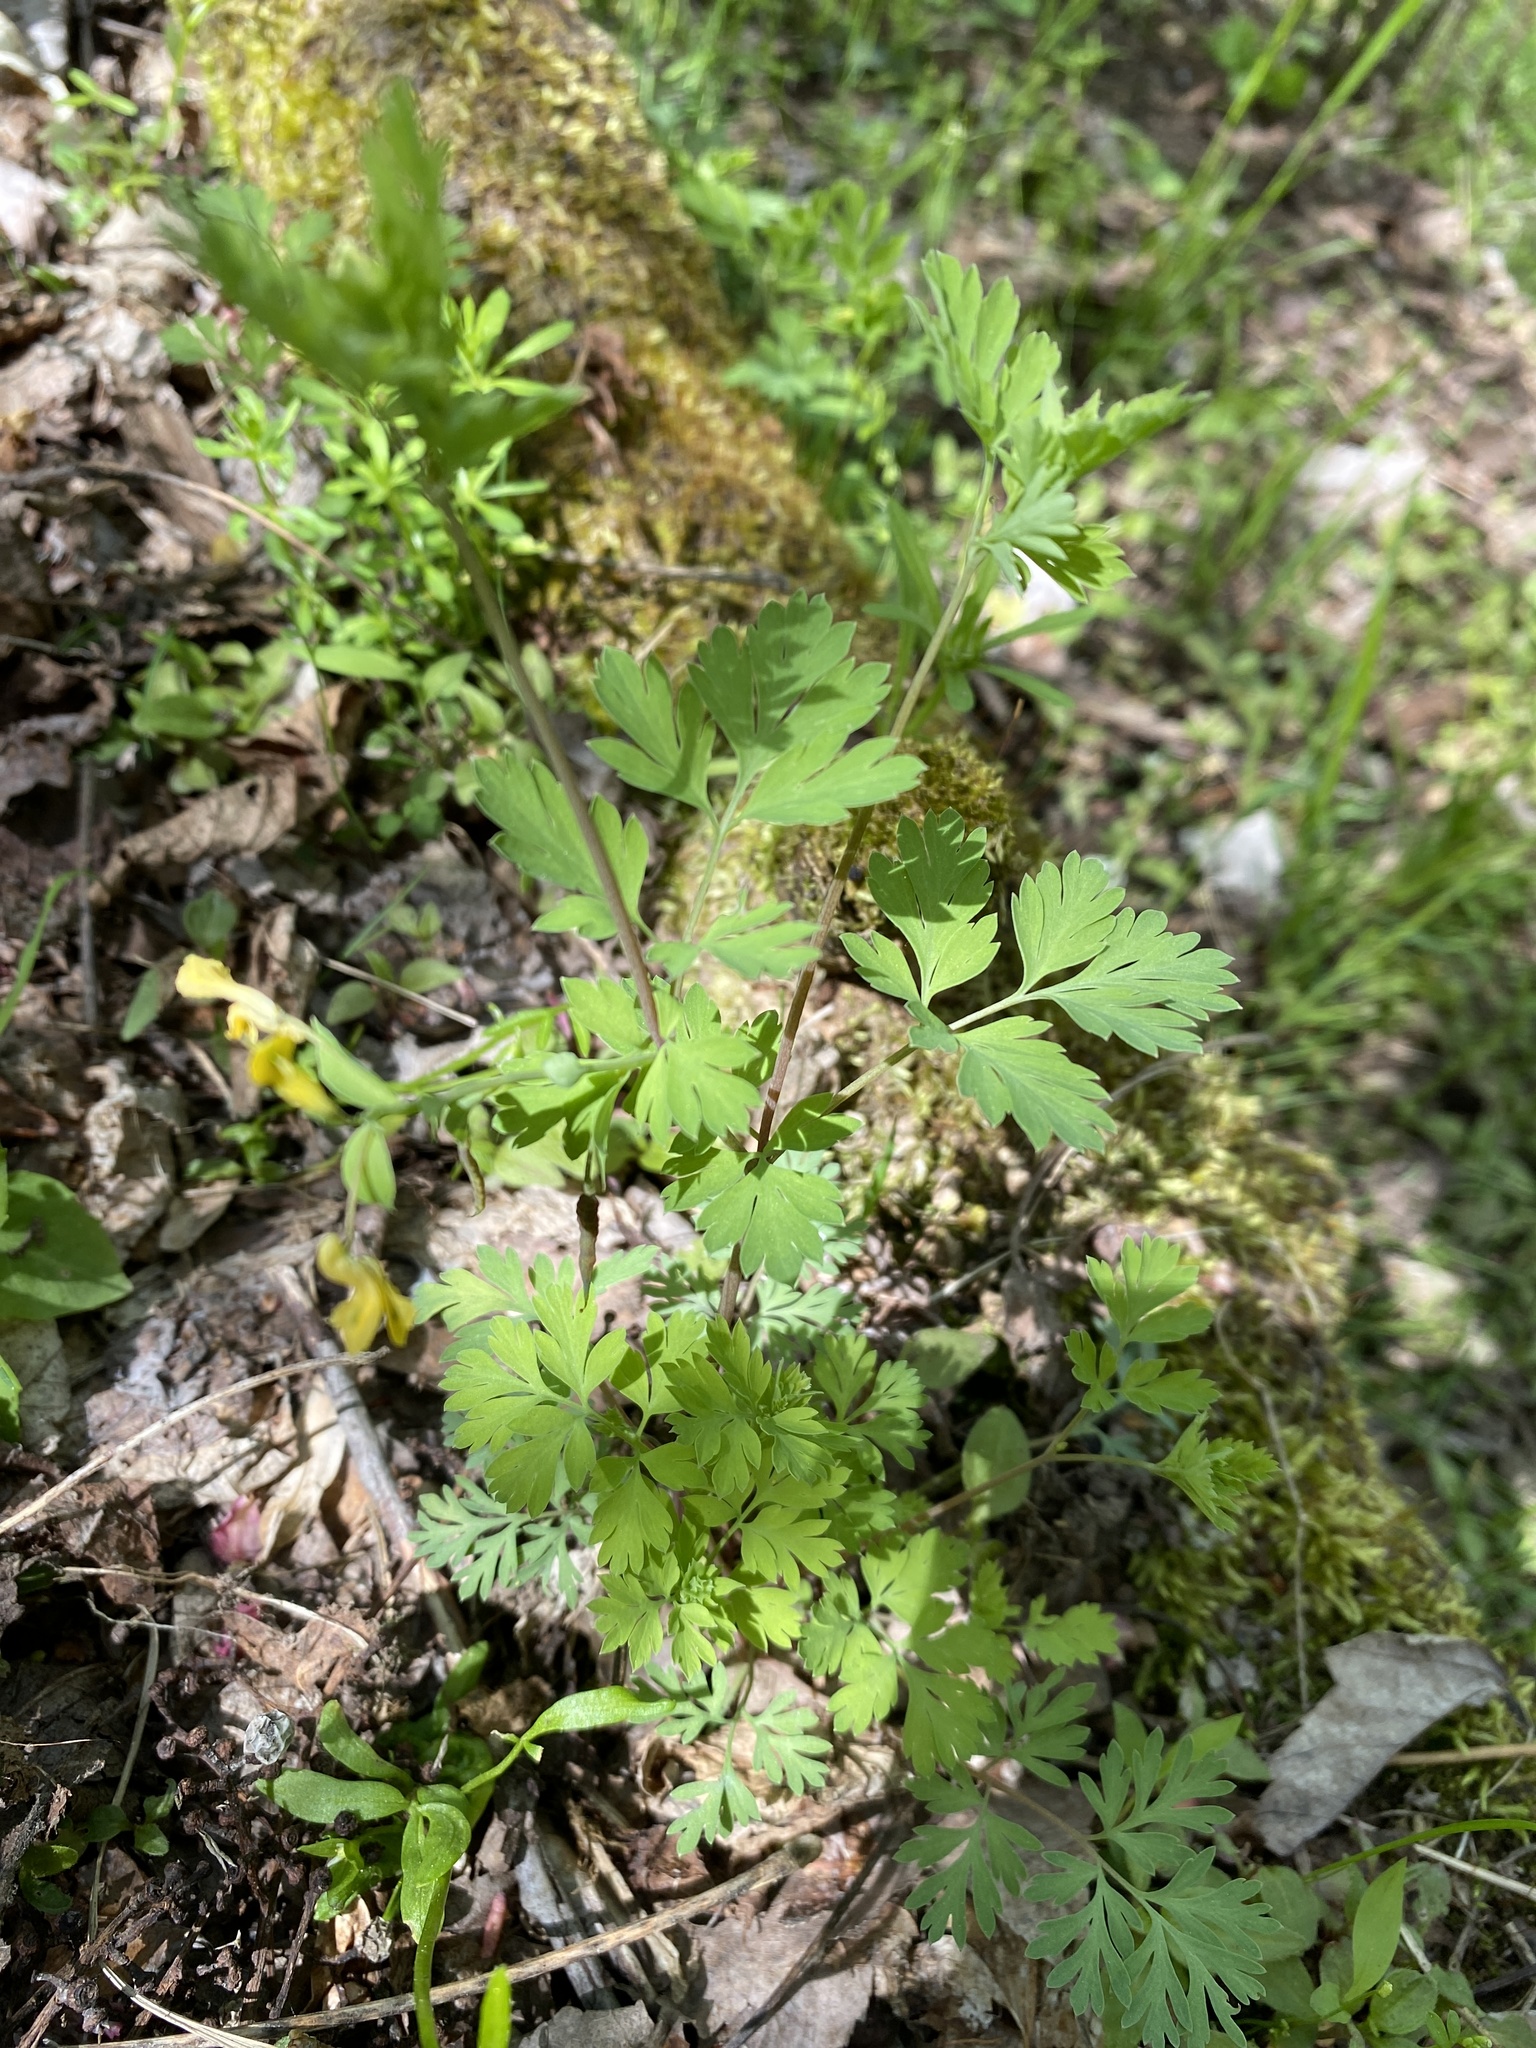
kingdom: Plantae
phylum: Tracheophyta
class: Magnoliopsida
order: Ranunculales
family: Papaveraceae
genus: Corydalis
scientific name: Corydalis flavula
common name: Yellow corydalis
